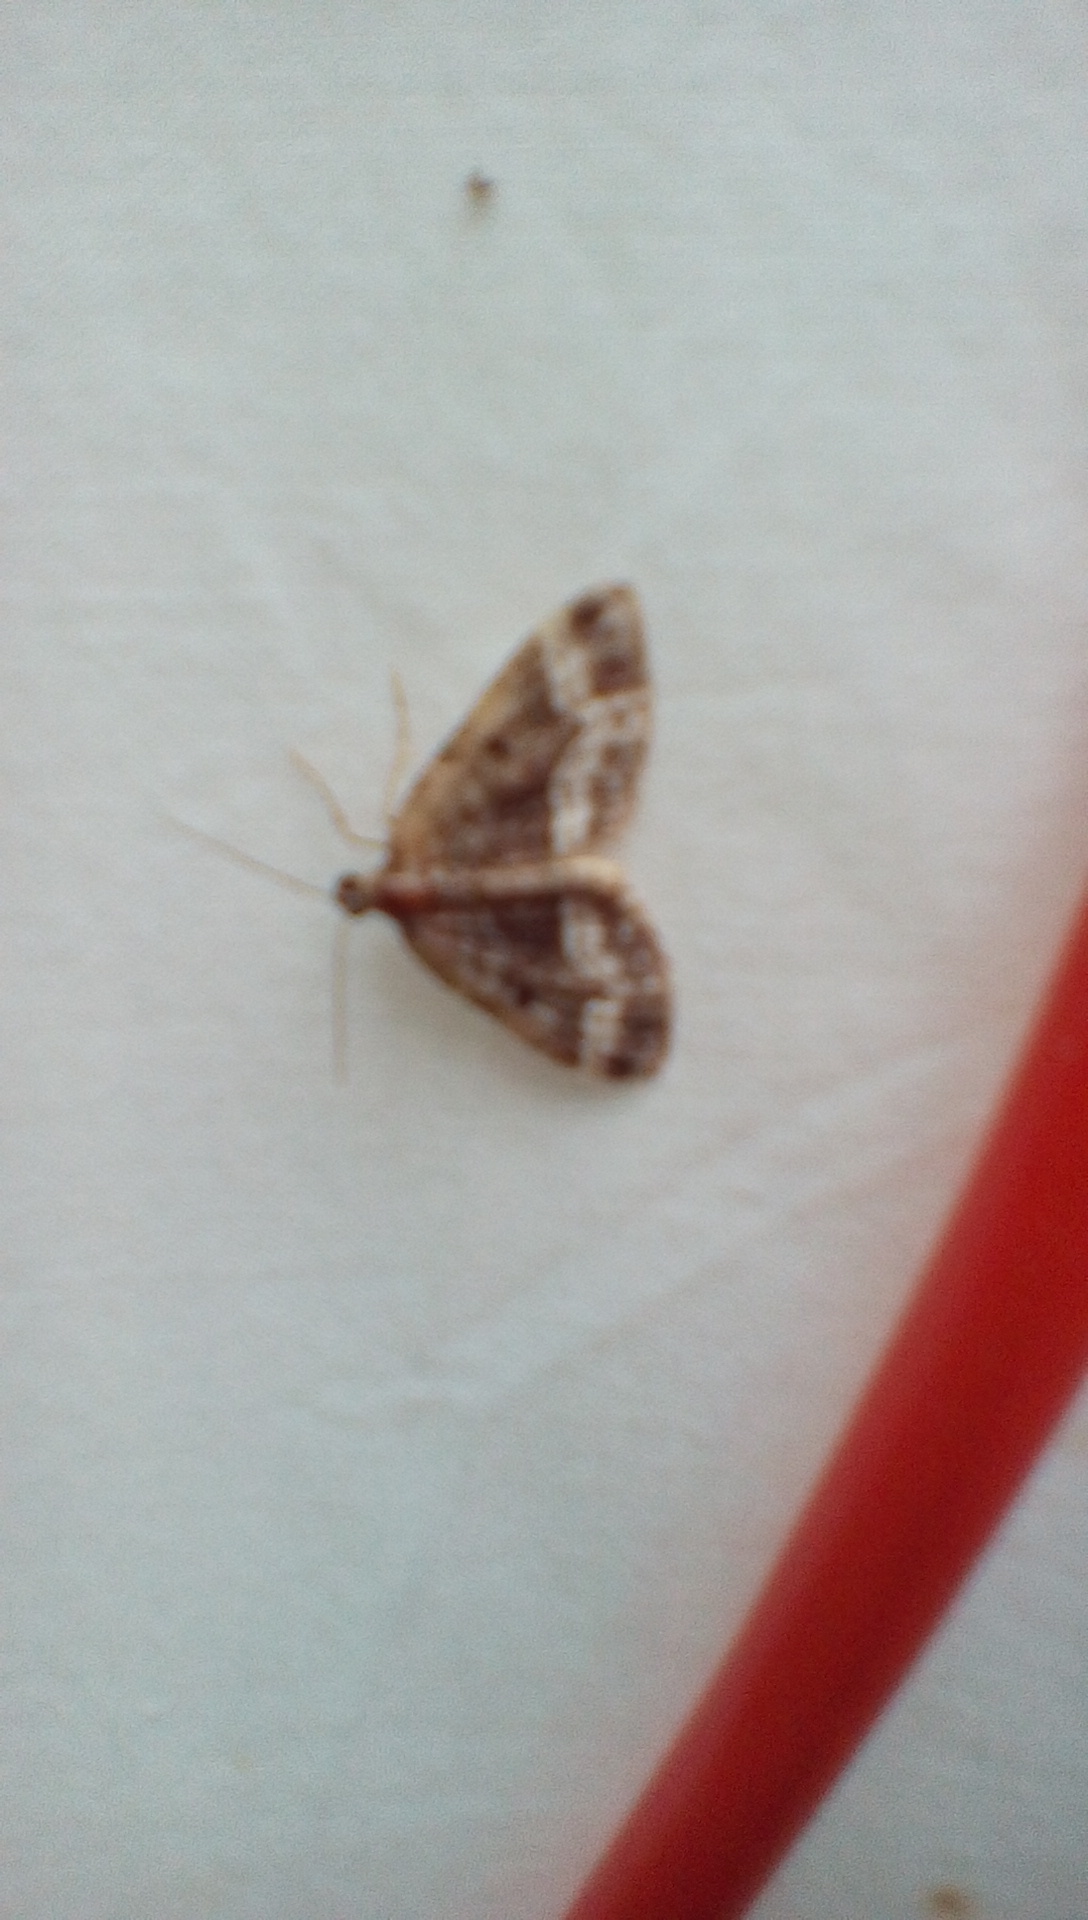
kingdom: Animalia
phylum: Arthropoda
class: Insecta
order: Lepidoptera
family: Geometridae
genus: Perizoma
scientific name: Perizoma alchemillata
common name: Small rivulet
